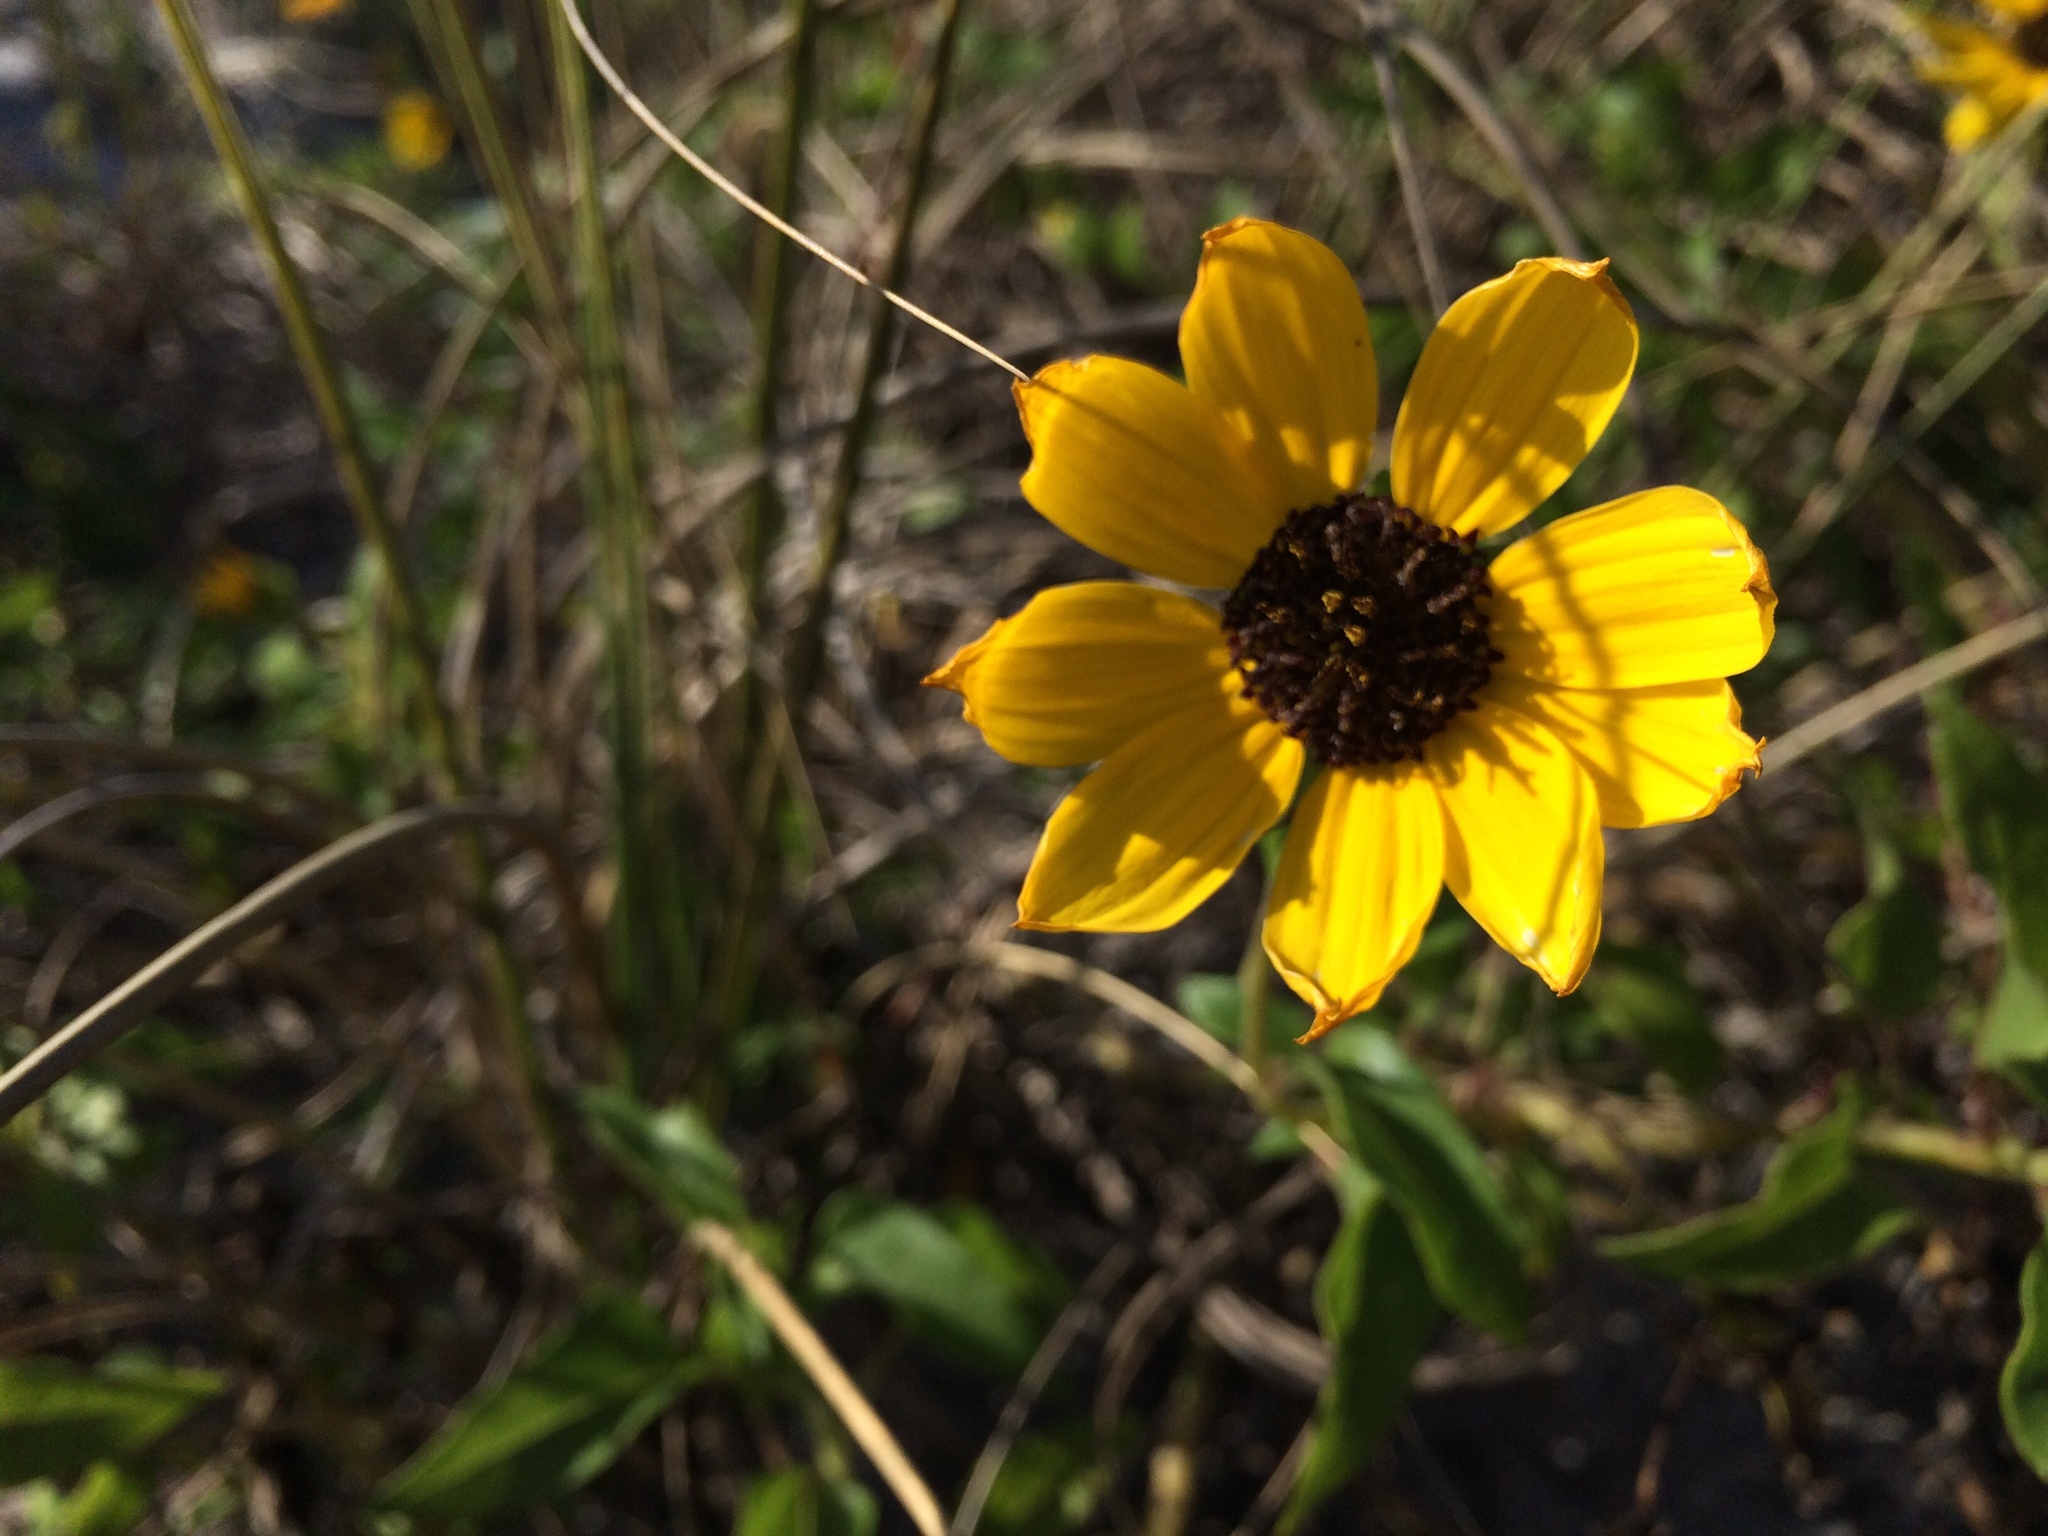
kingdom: Plantae
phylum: Tracheophyta
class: Magnoliopsida
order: Asterales
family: Asteraceae
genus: Helianthus
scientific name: Helianthus debilis
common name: Weak sunflower
